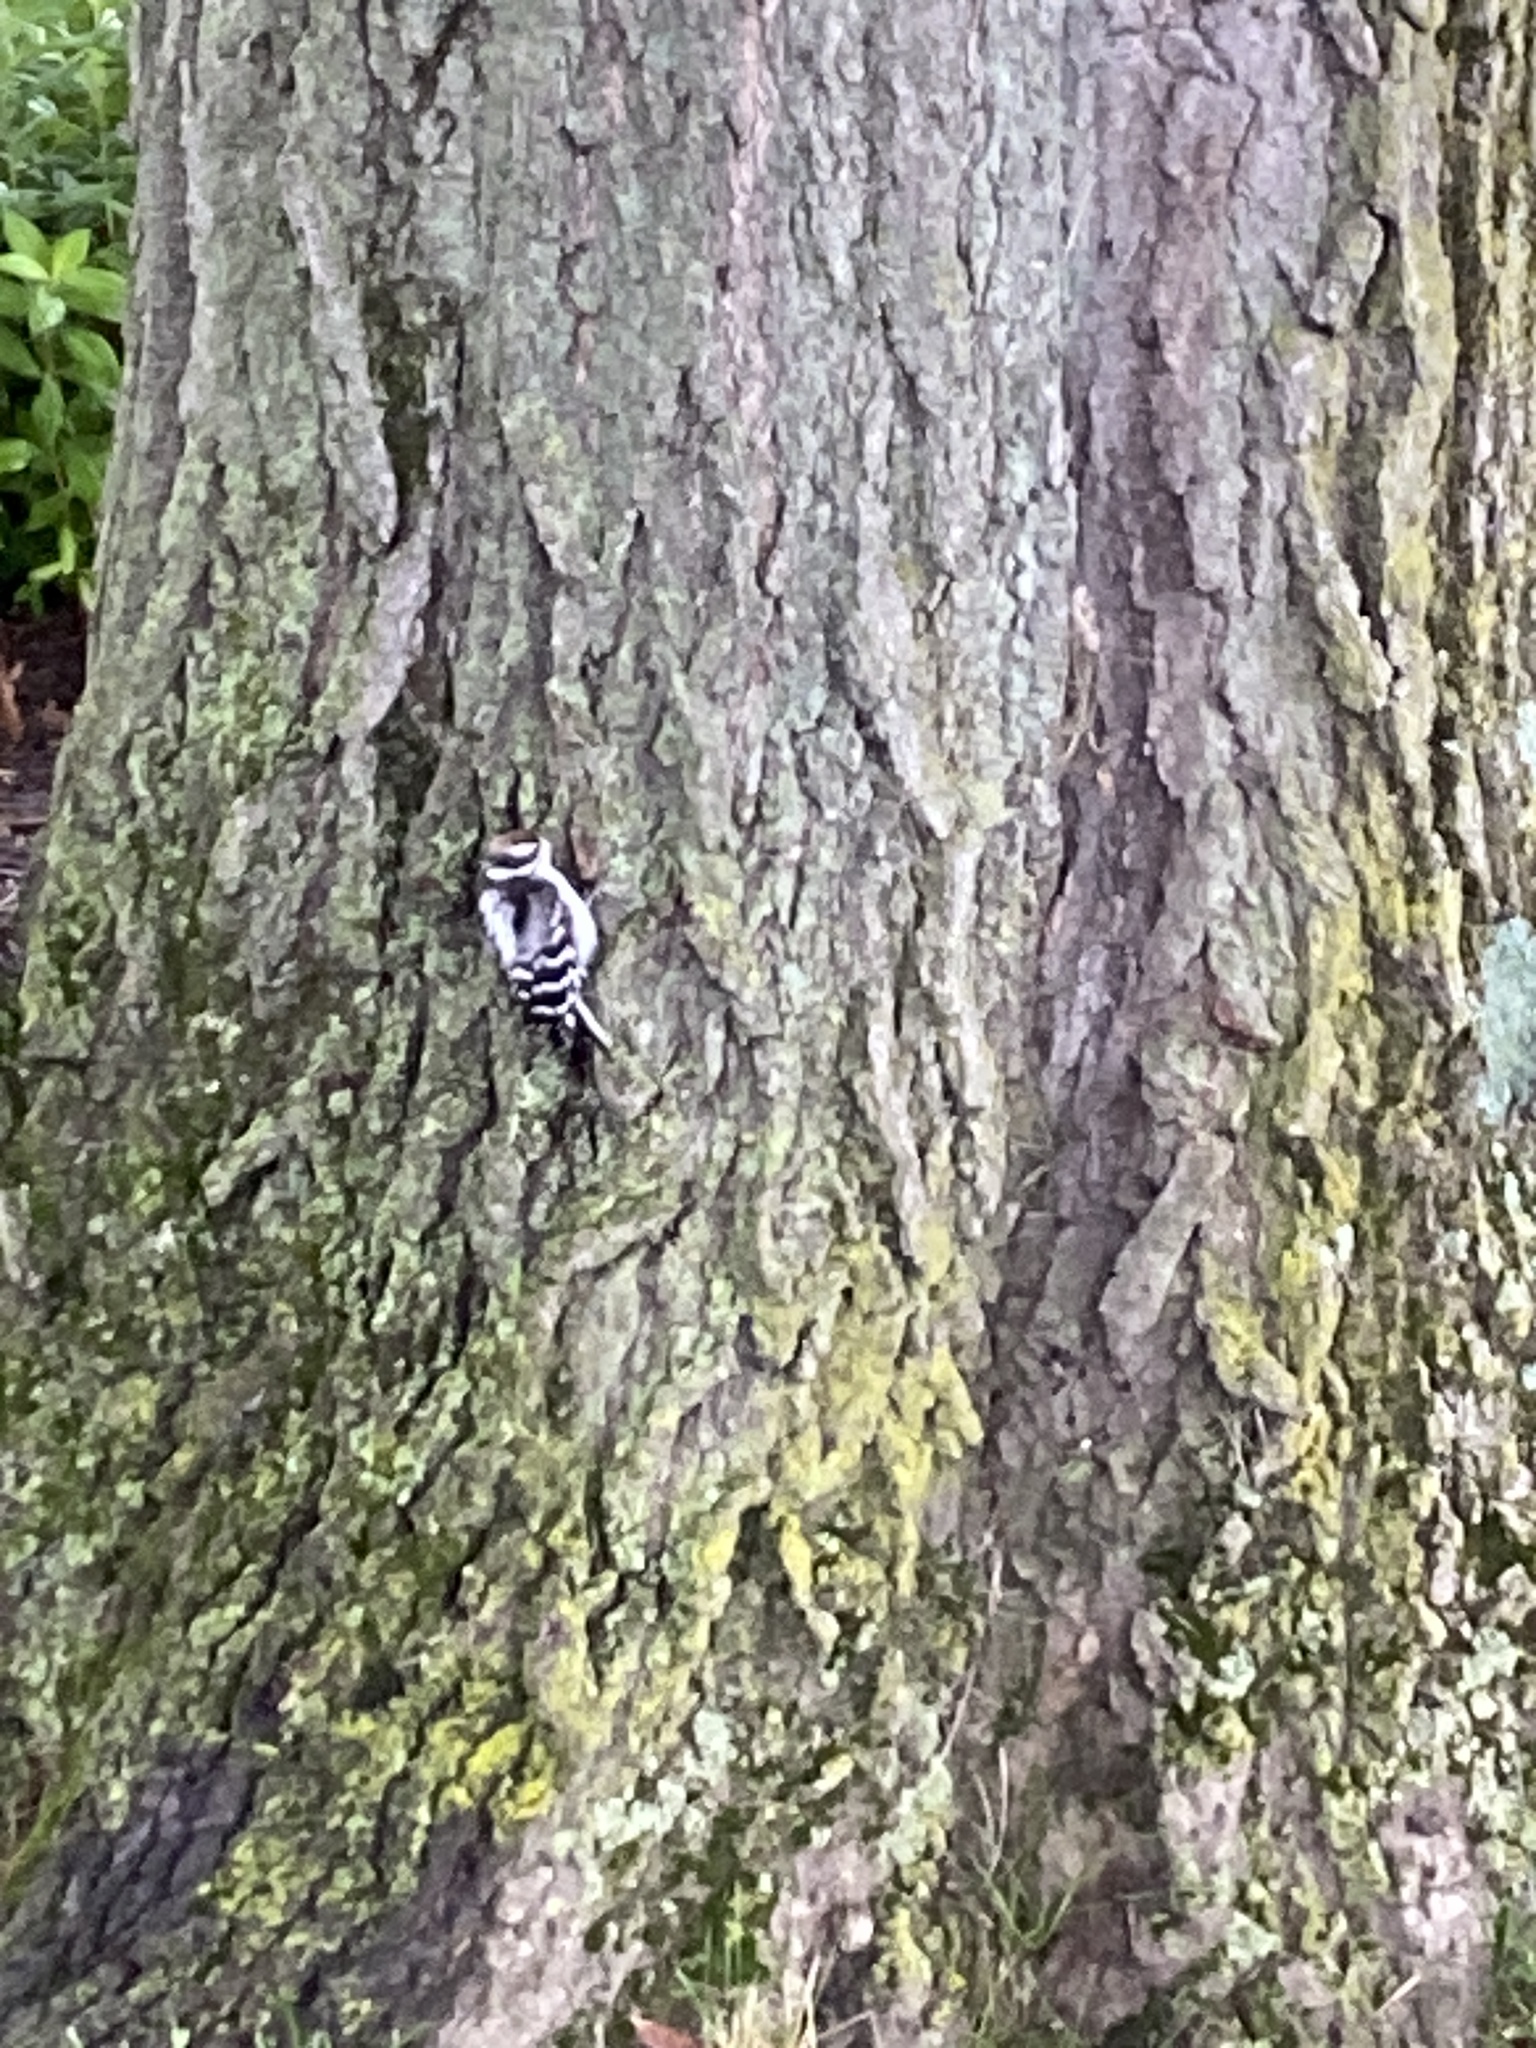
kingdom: Animalia
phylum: Chordata
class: Aves
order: Piciformes
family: Picidae
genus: Dryobates
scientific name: Dryobates pubescens
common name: Downy woodpecker
